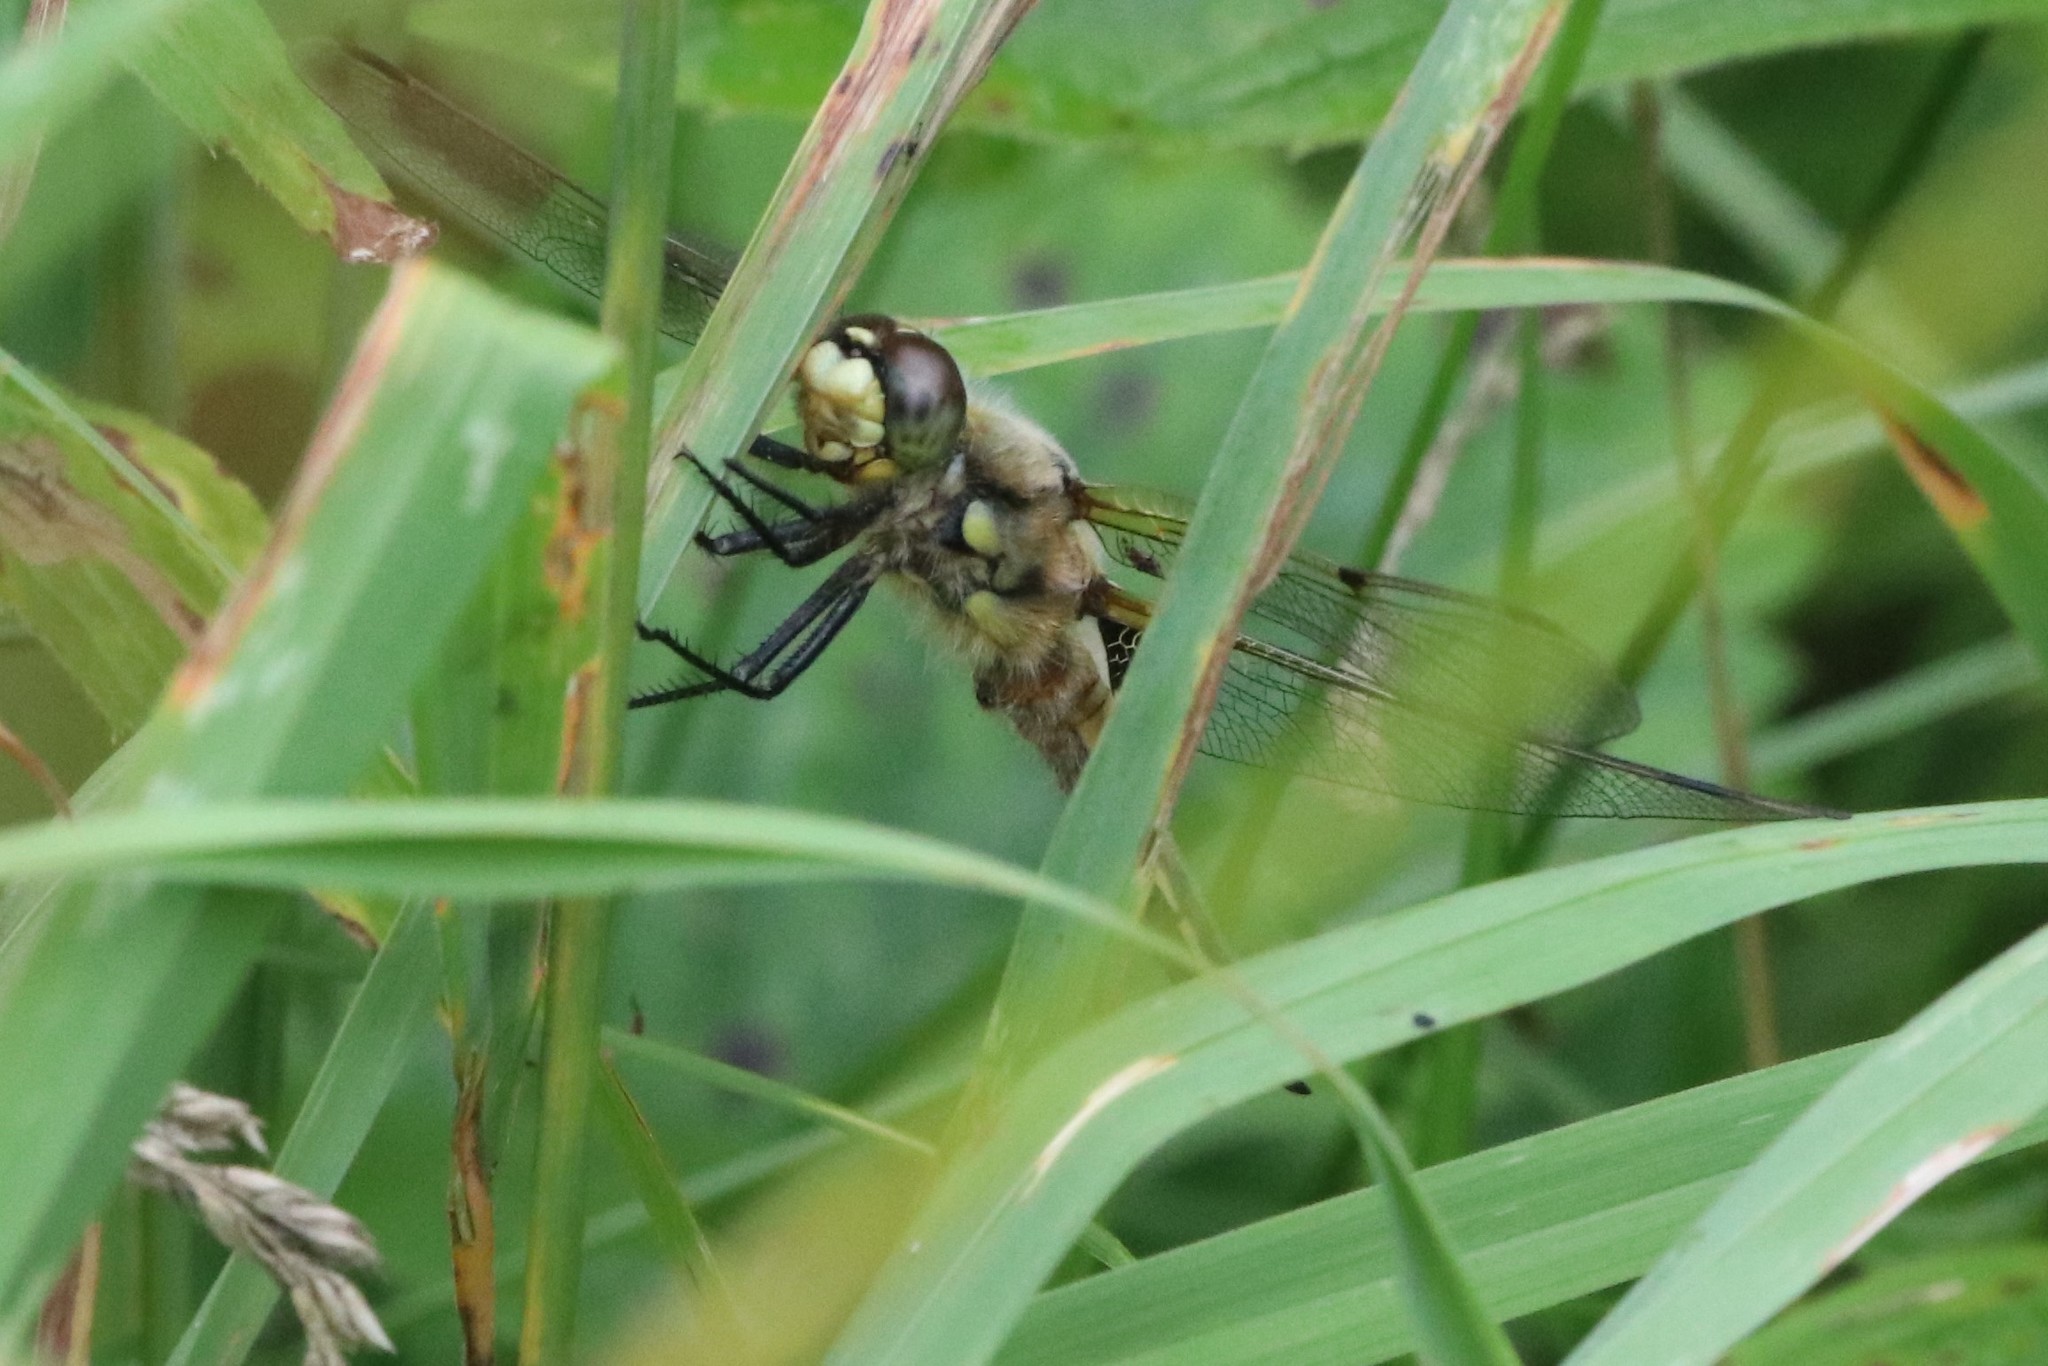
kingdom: Animalia
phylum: Arthropoda
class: Insecta
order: Odonata
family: Libellulidae
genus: Libellula
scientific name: Libellula quadrimaculata
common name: Four-spotted chaser
